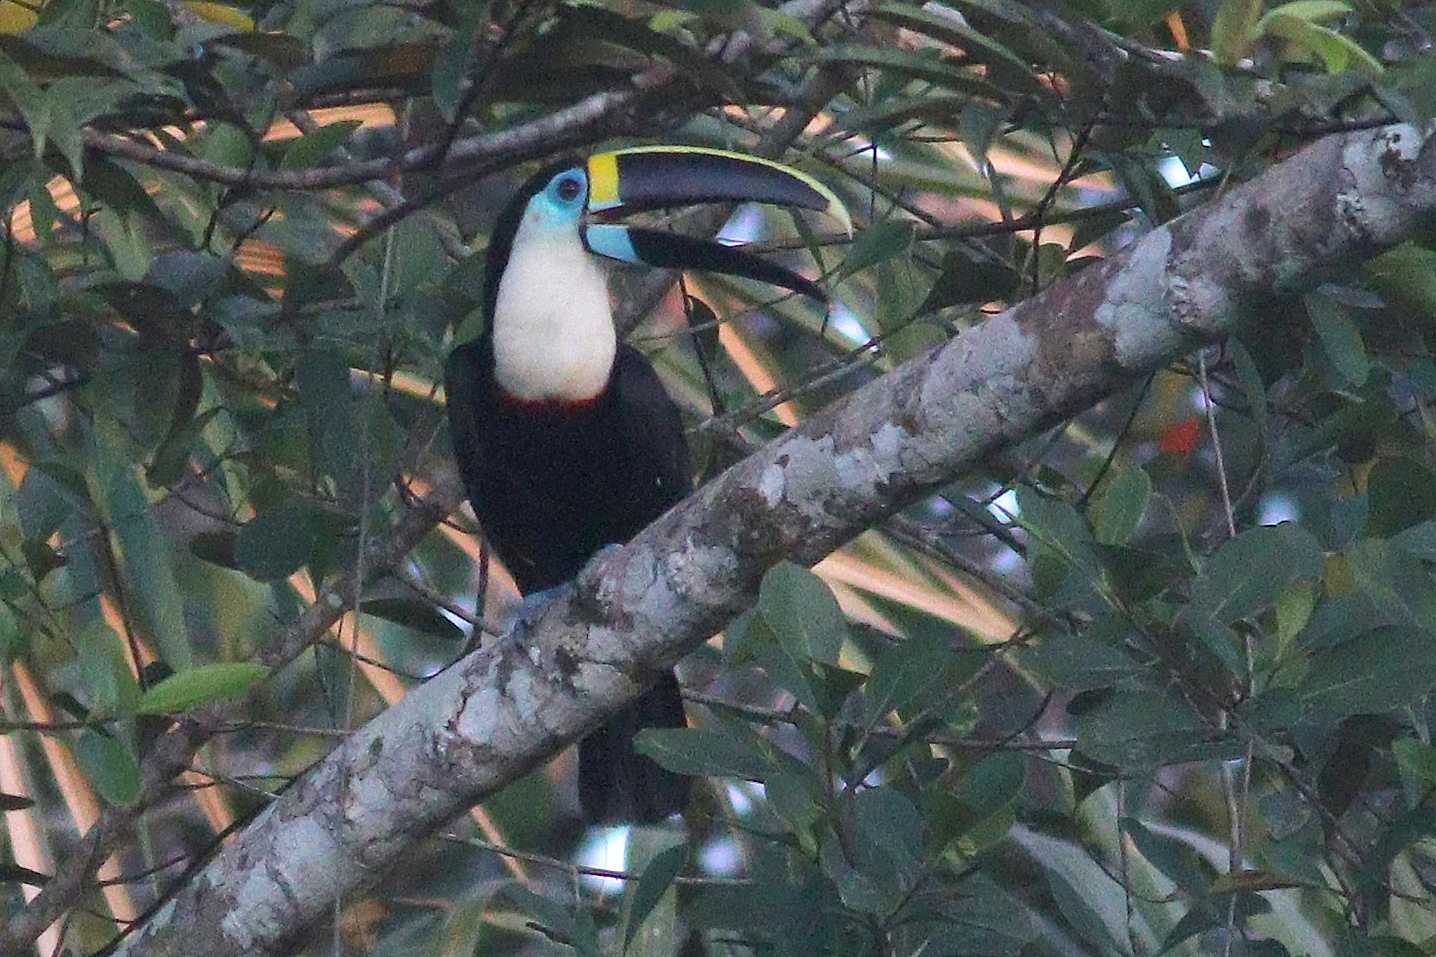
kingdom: Animalia
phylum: Chordata
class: Aves
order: Piciformes
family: Ramphastidae
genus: Ramphastos
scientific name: Ramphastos tucanus
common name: White-throated toucan
